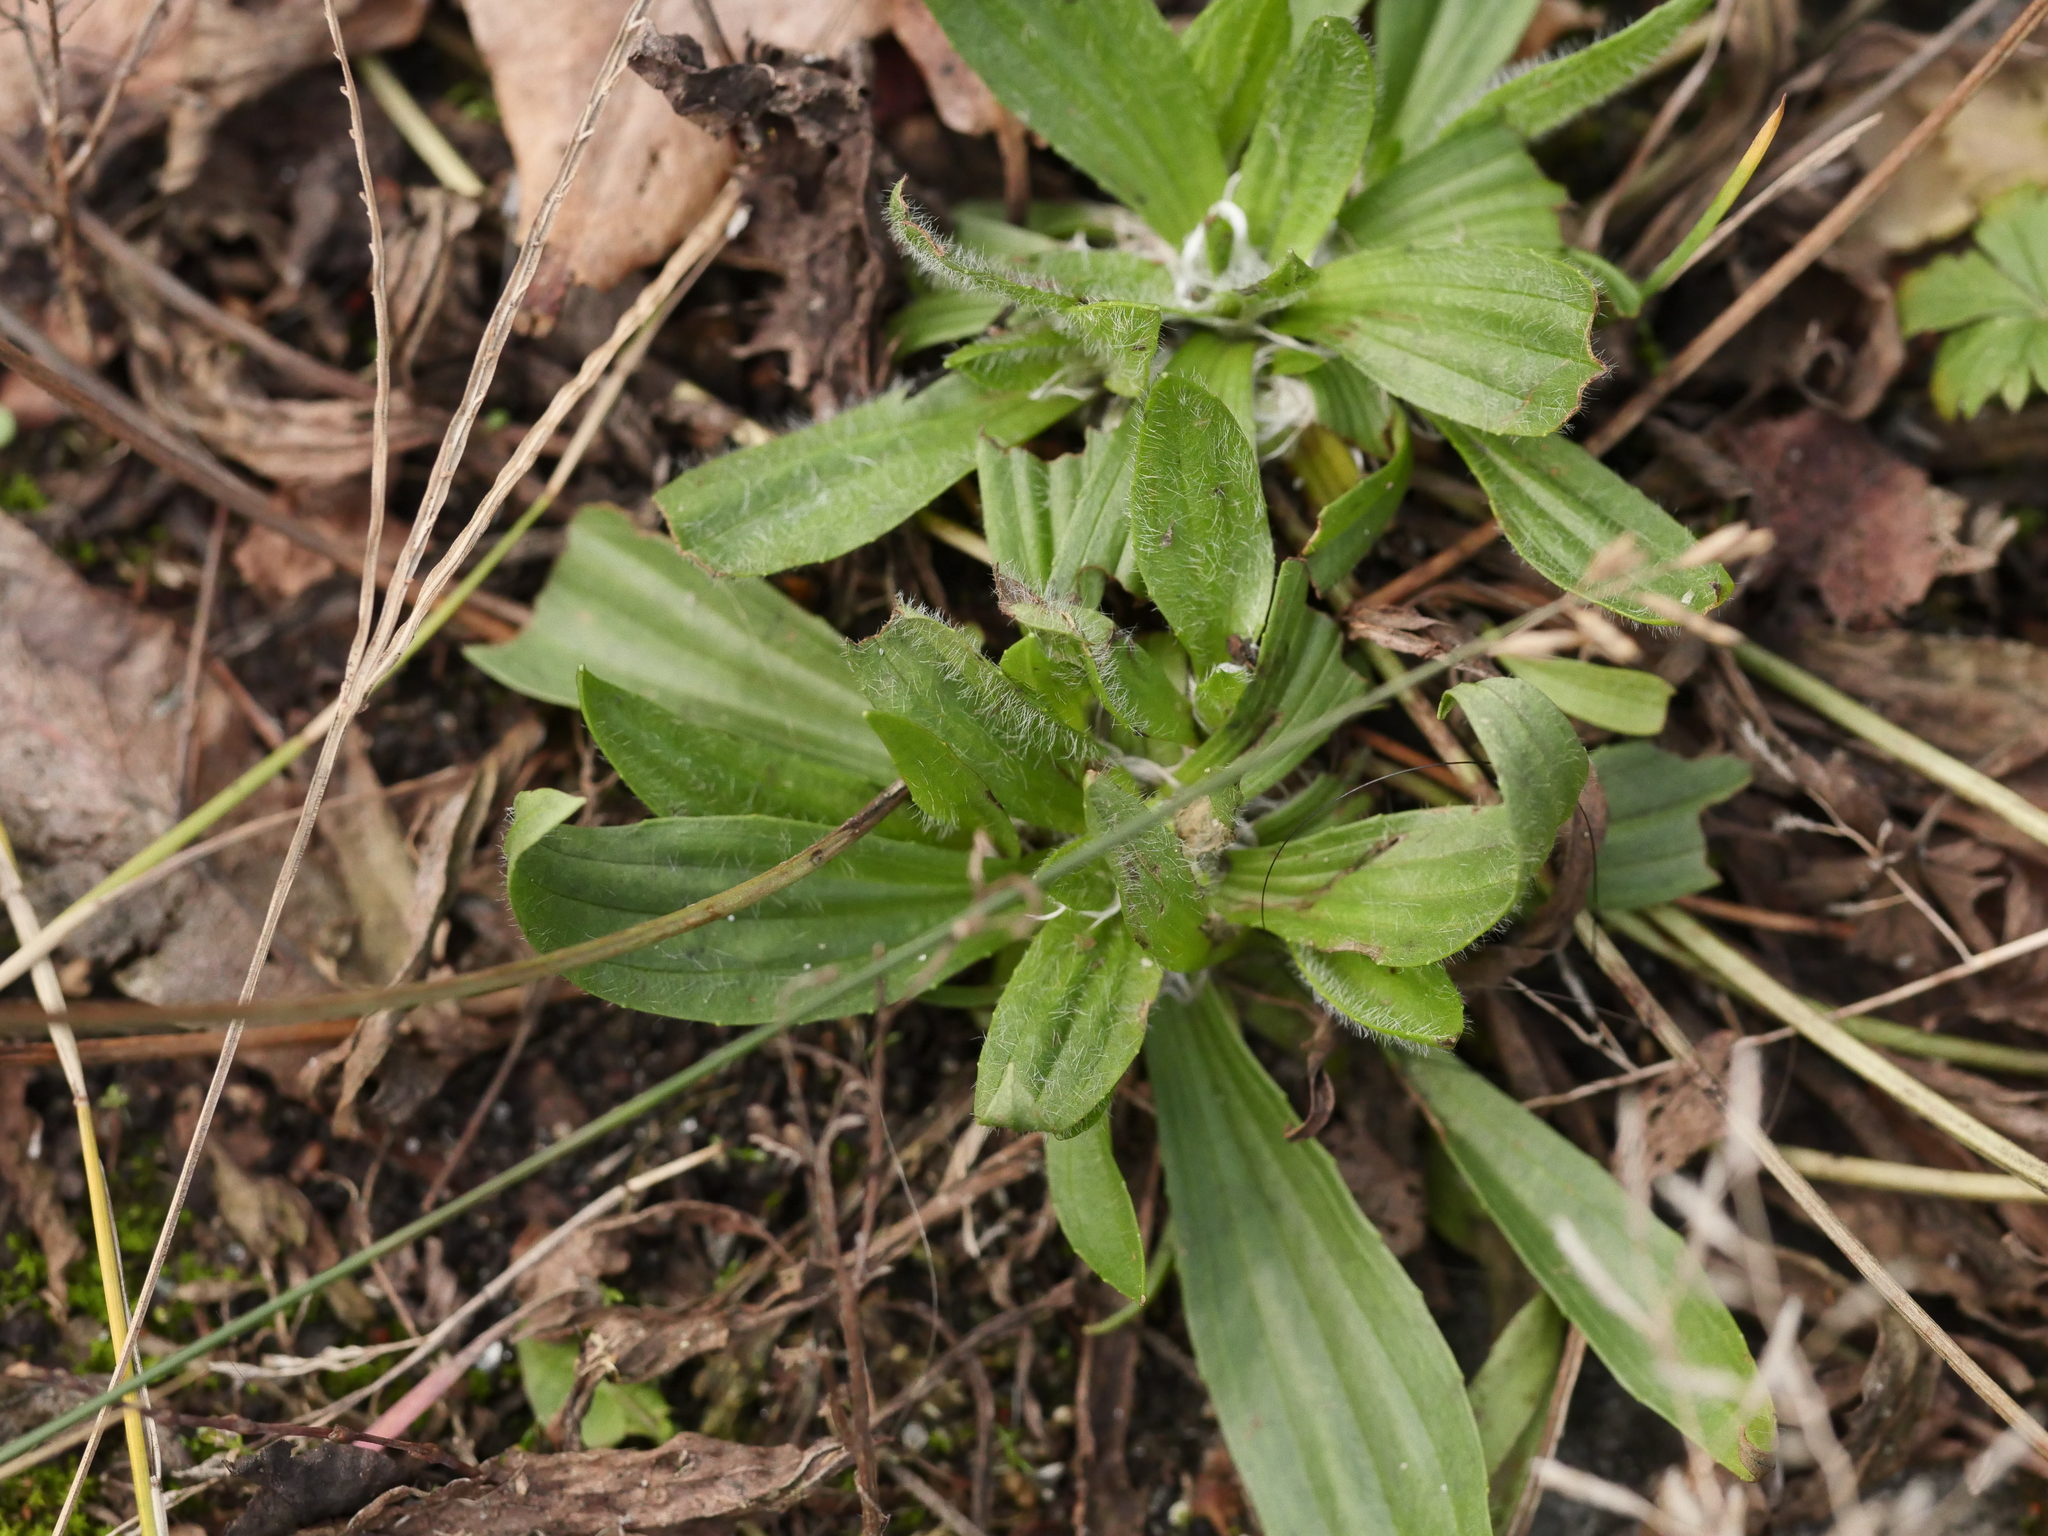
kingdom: Plantae
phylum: Tracheophyta
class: Magnoliopsida
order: Lamiales
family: Plantaginaceae
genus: Plantago
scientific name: Plantago lanceolata
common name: Ribwort plantain
